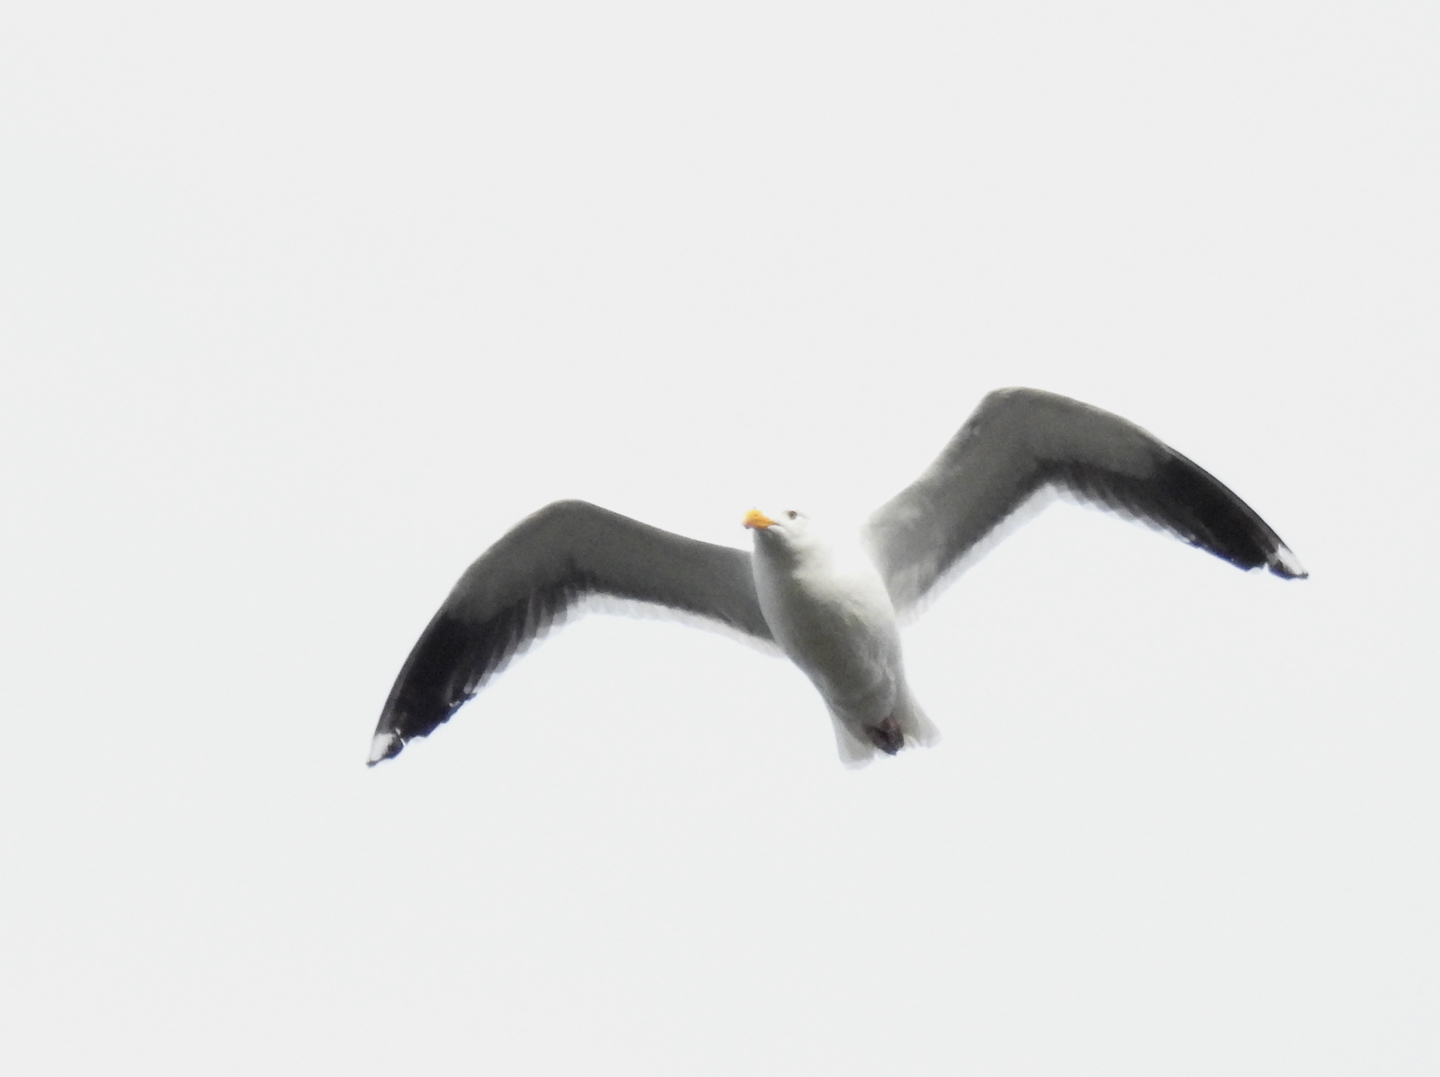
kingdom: Animalia
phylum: Chordata
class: Aves
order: Charadriiformes
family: Laridae
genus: Larus
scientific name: Larus occidentalis
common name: Western gull
